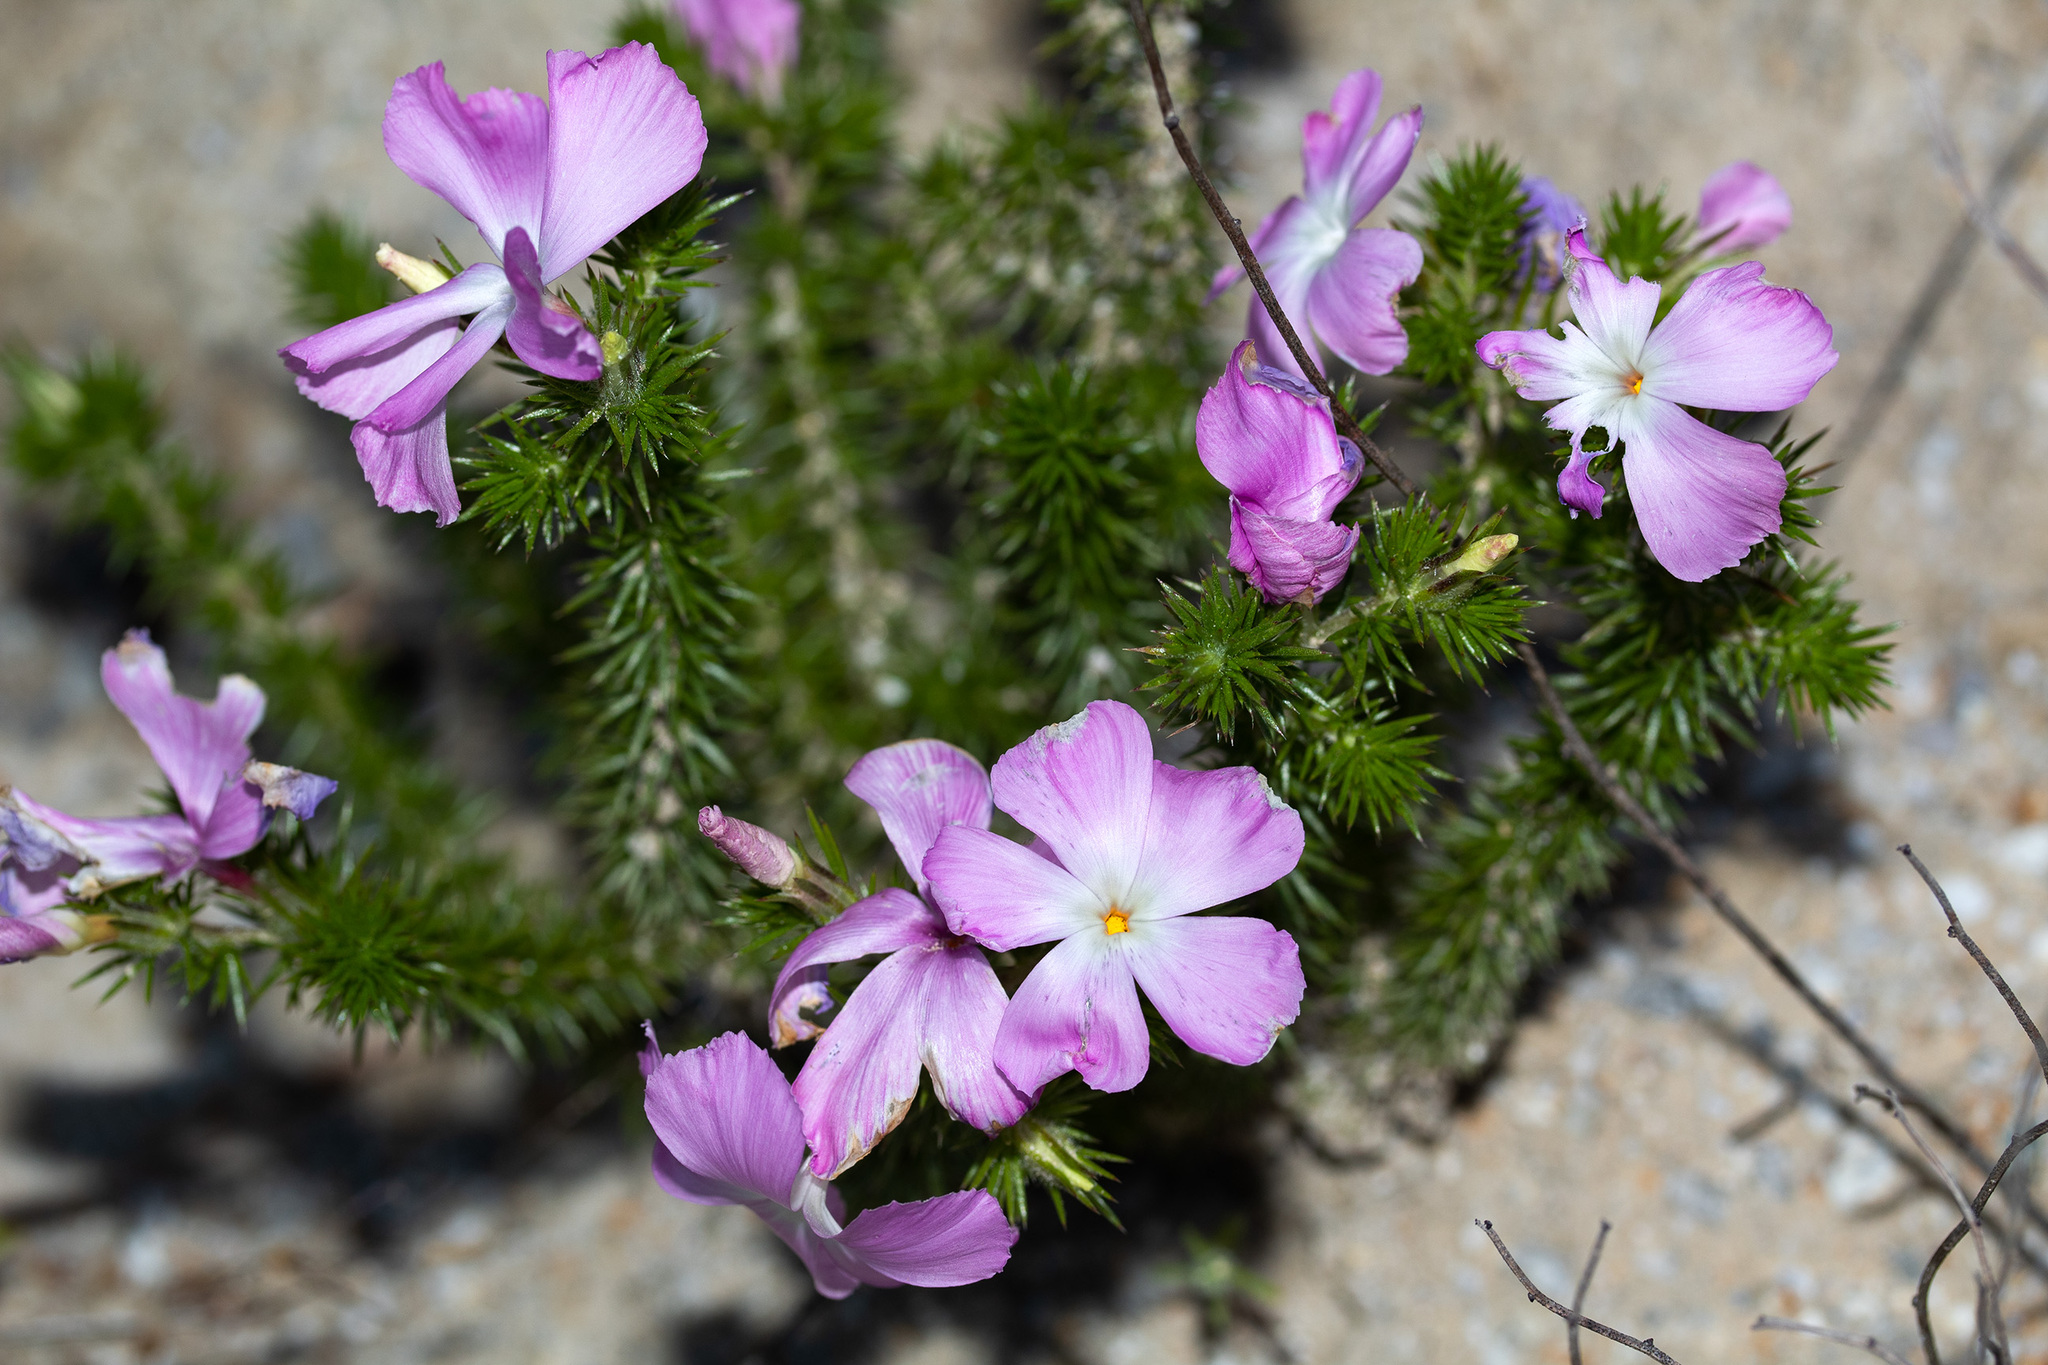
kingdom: Plantae
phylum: Tracheophyta
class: Magnoliopsida
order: Ericales
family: Polemoniaceae
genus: Linanthus
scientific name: Linanthus californicus
